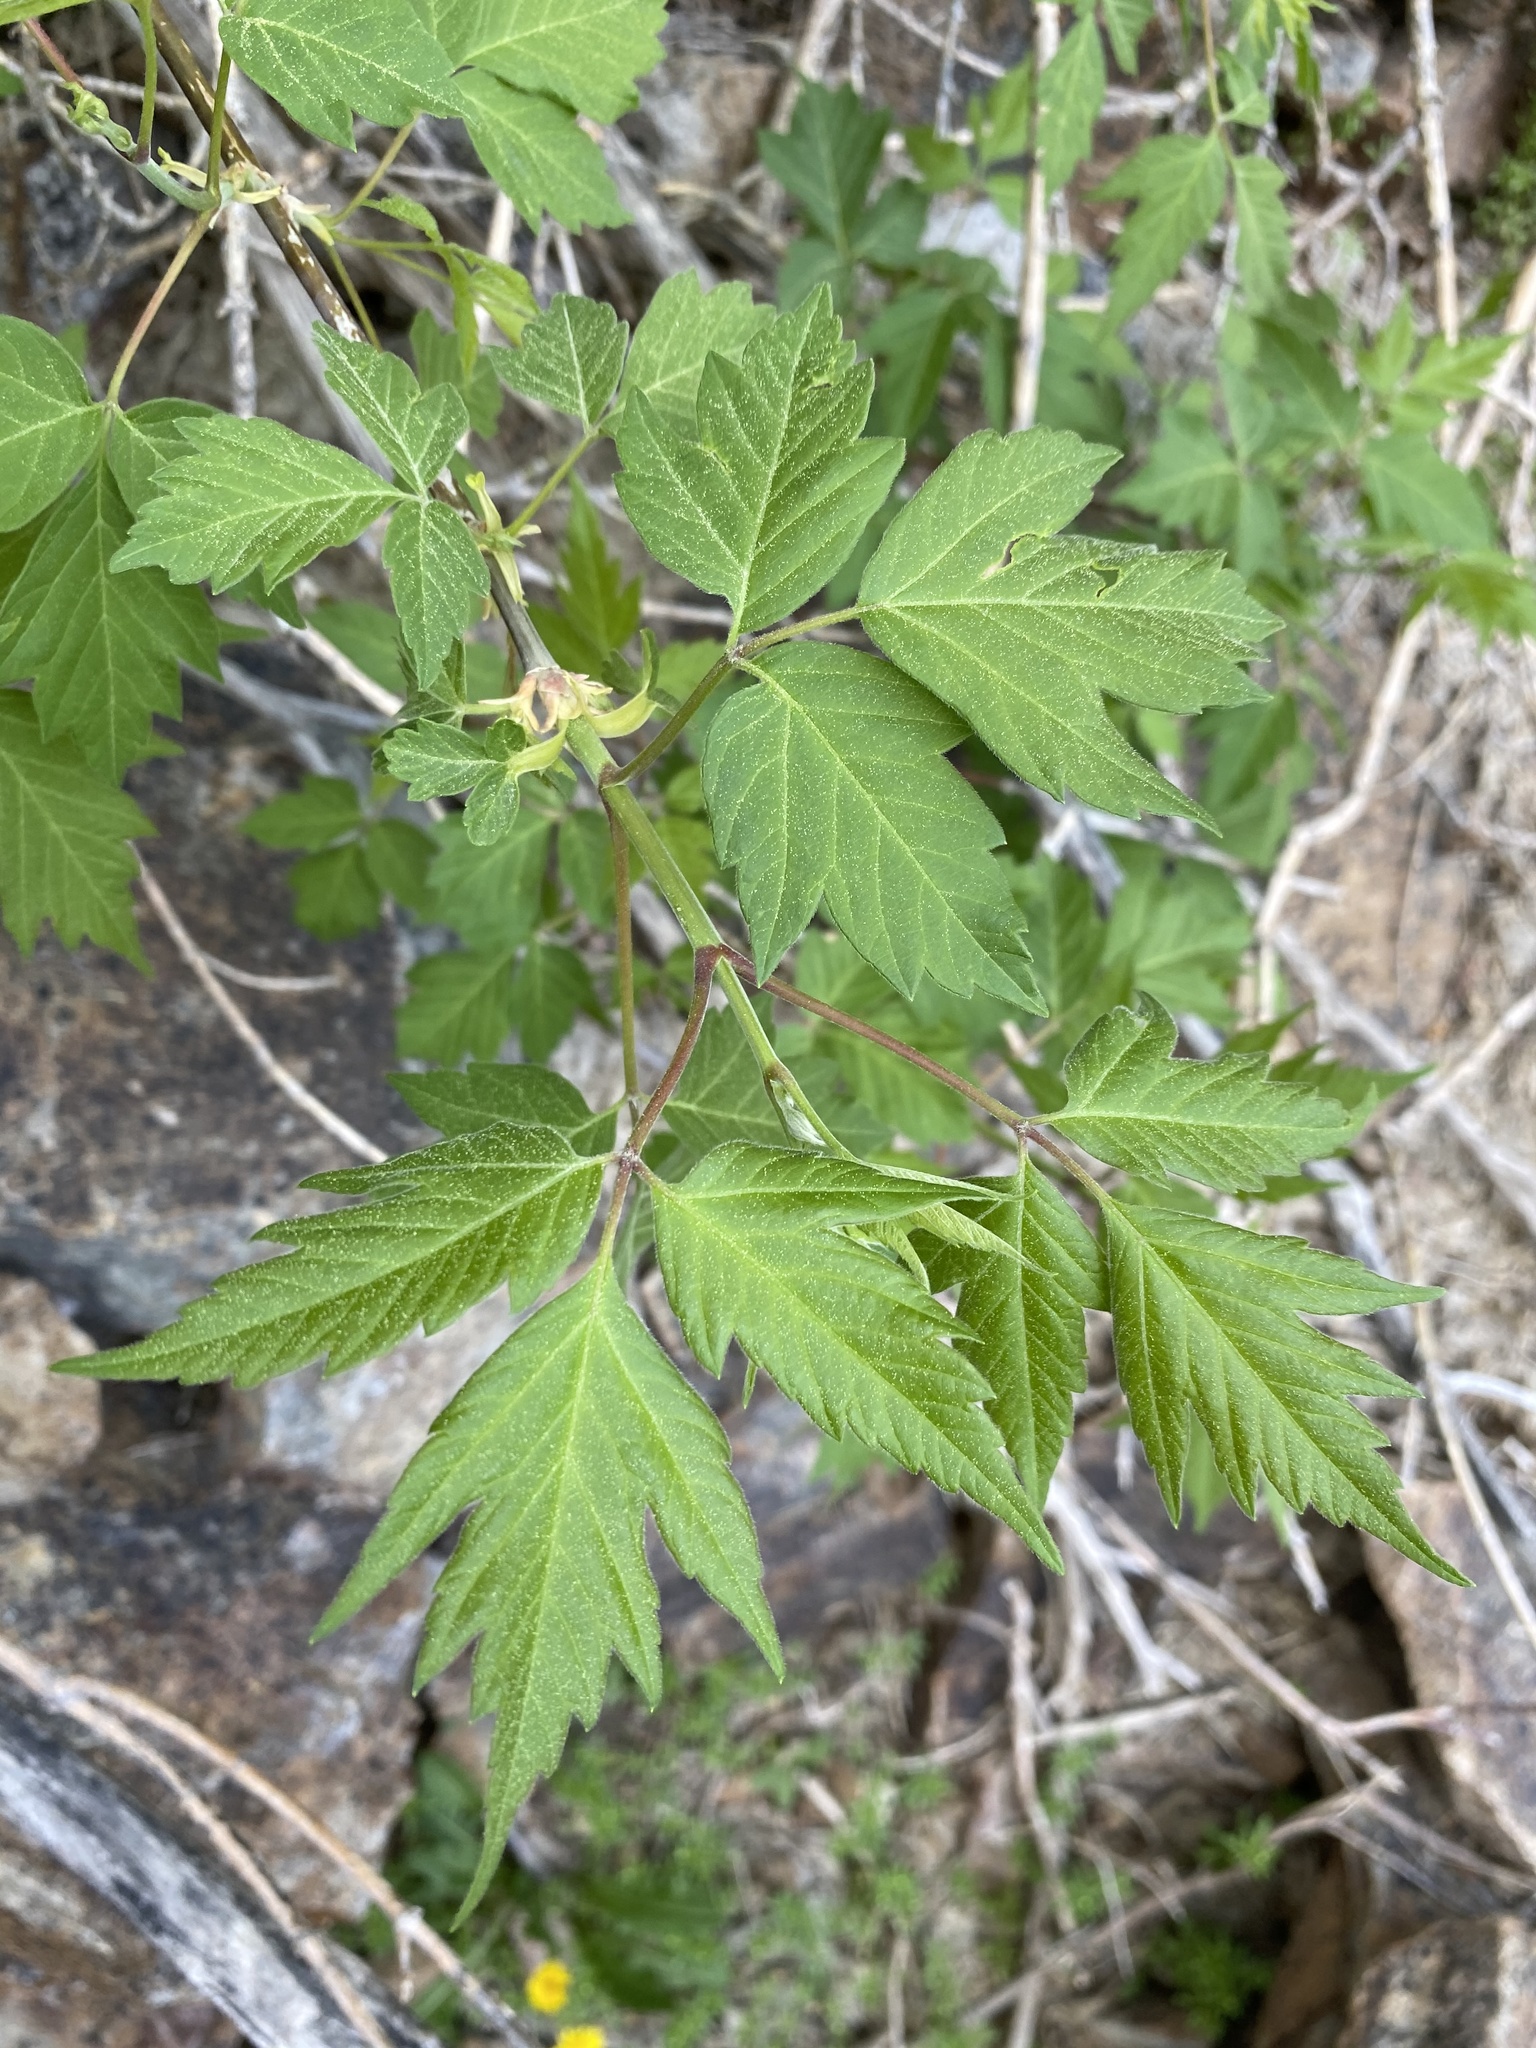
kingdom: Plantae
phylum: Tracheophyta
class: Magnoliopsida
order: Sapindales
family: Sapindaceae
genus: Acer
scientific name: Acer negundo
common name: Ashleaf maple
